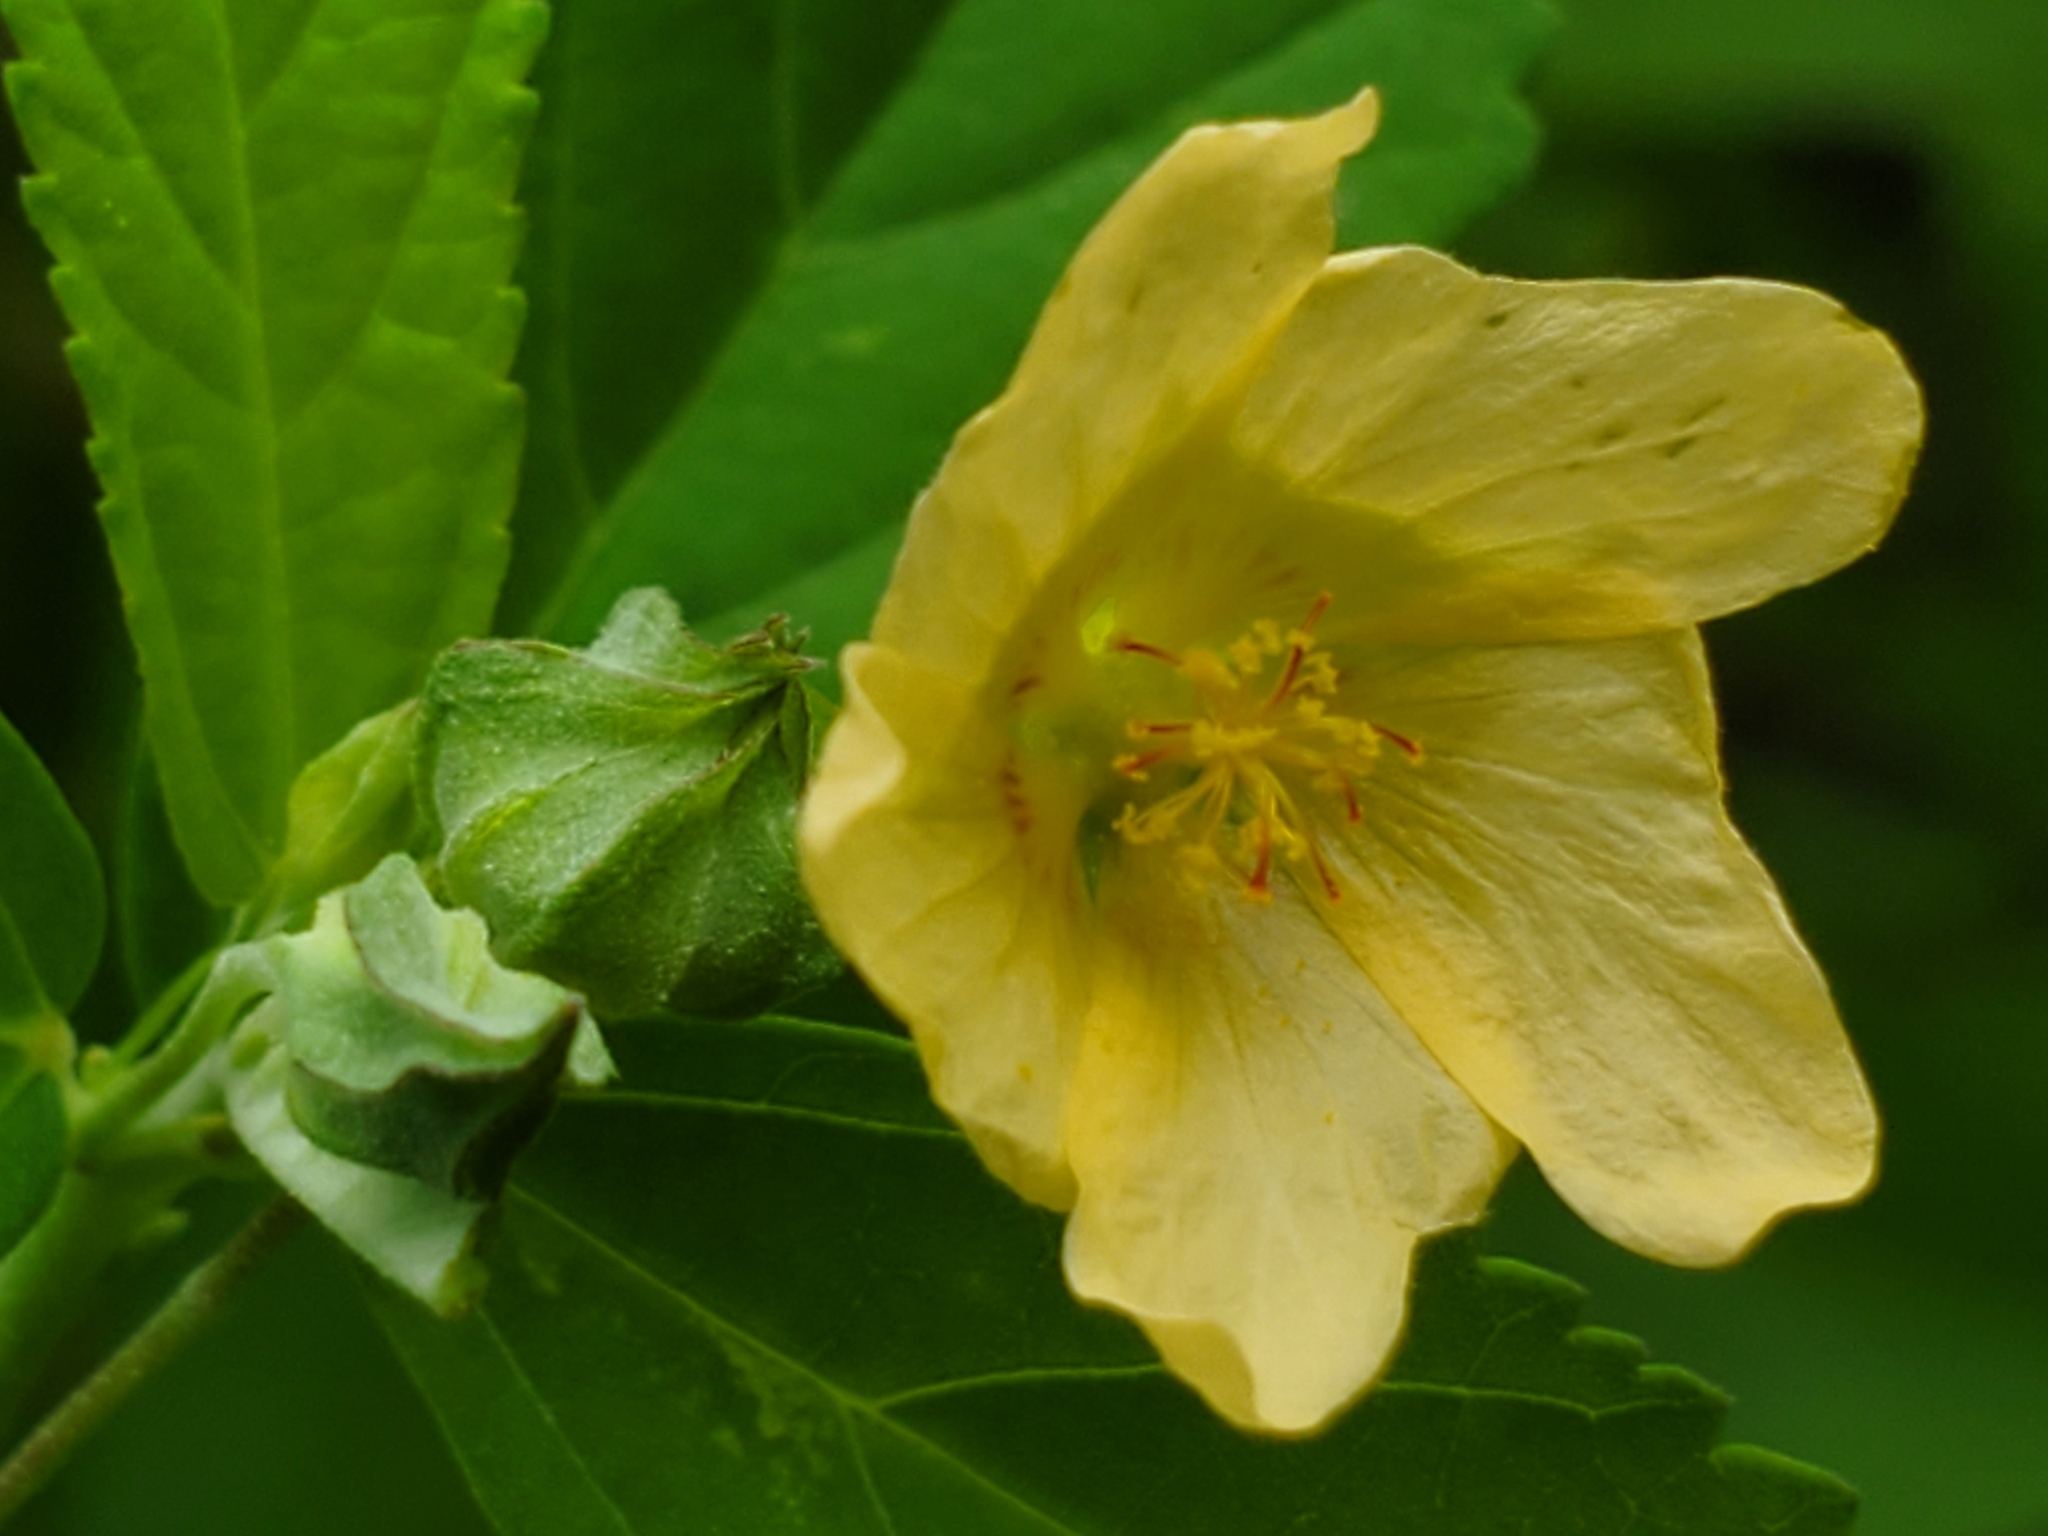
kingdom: Plantae
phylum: Tracheophyta
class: Magnoliopsida
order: Malvales
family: Malvaceae
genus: Sida
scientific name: Sida rhombifolia
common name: Queensland-hemp
